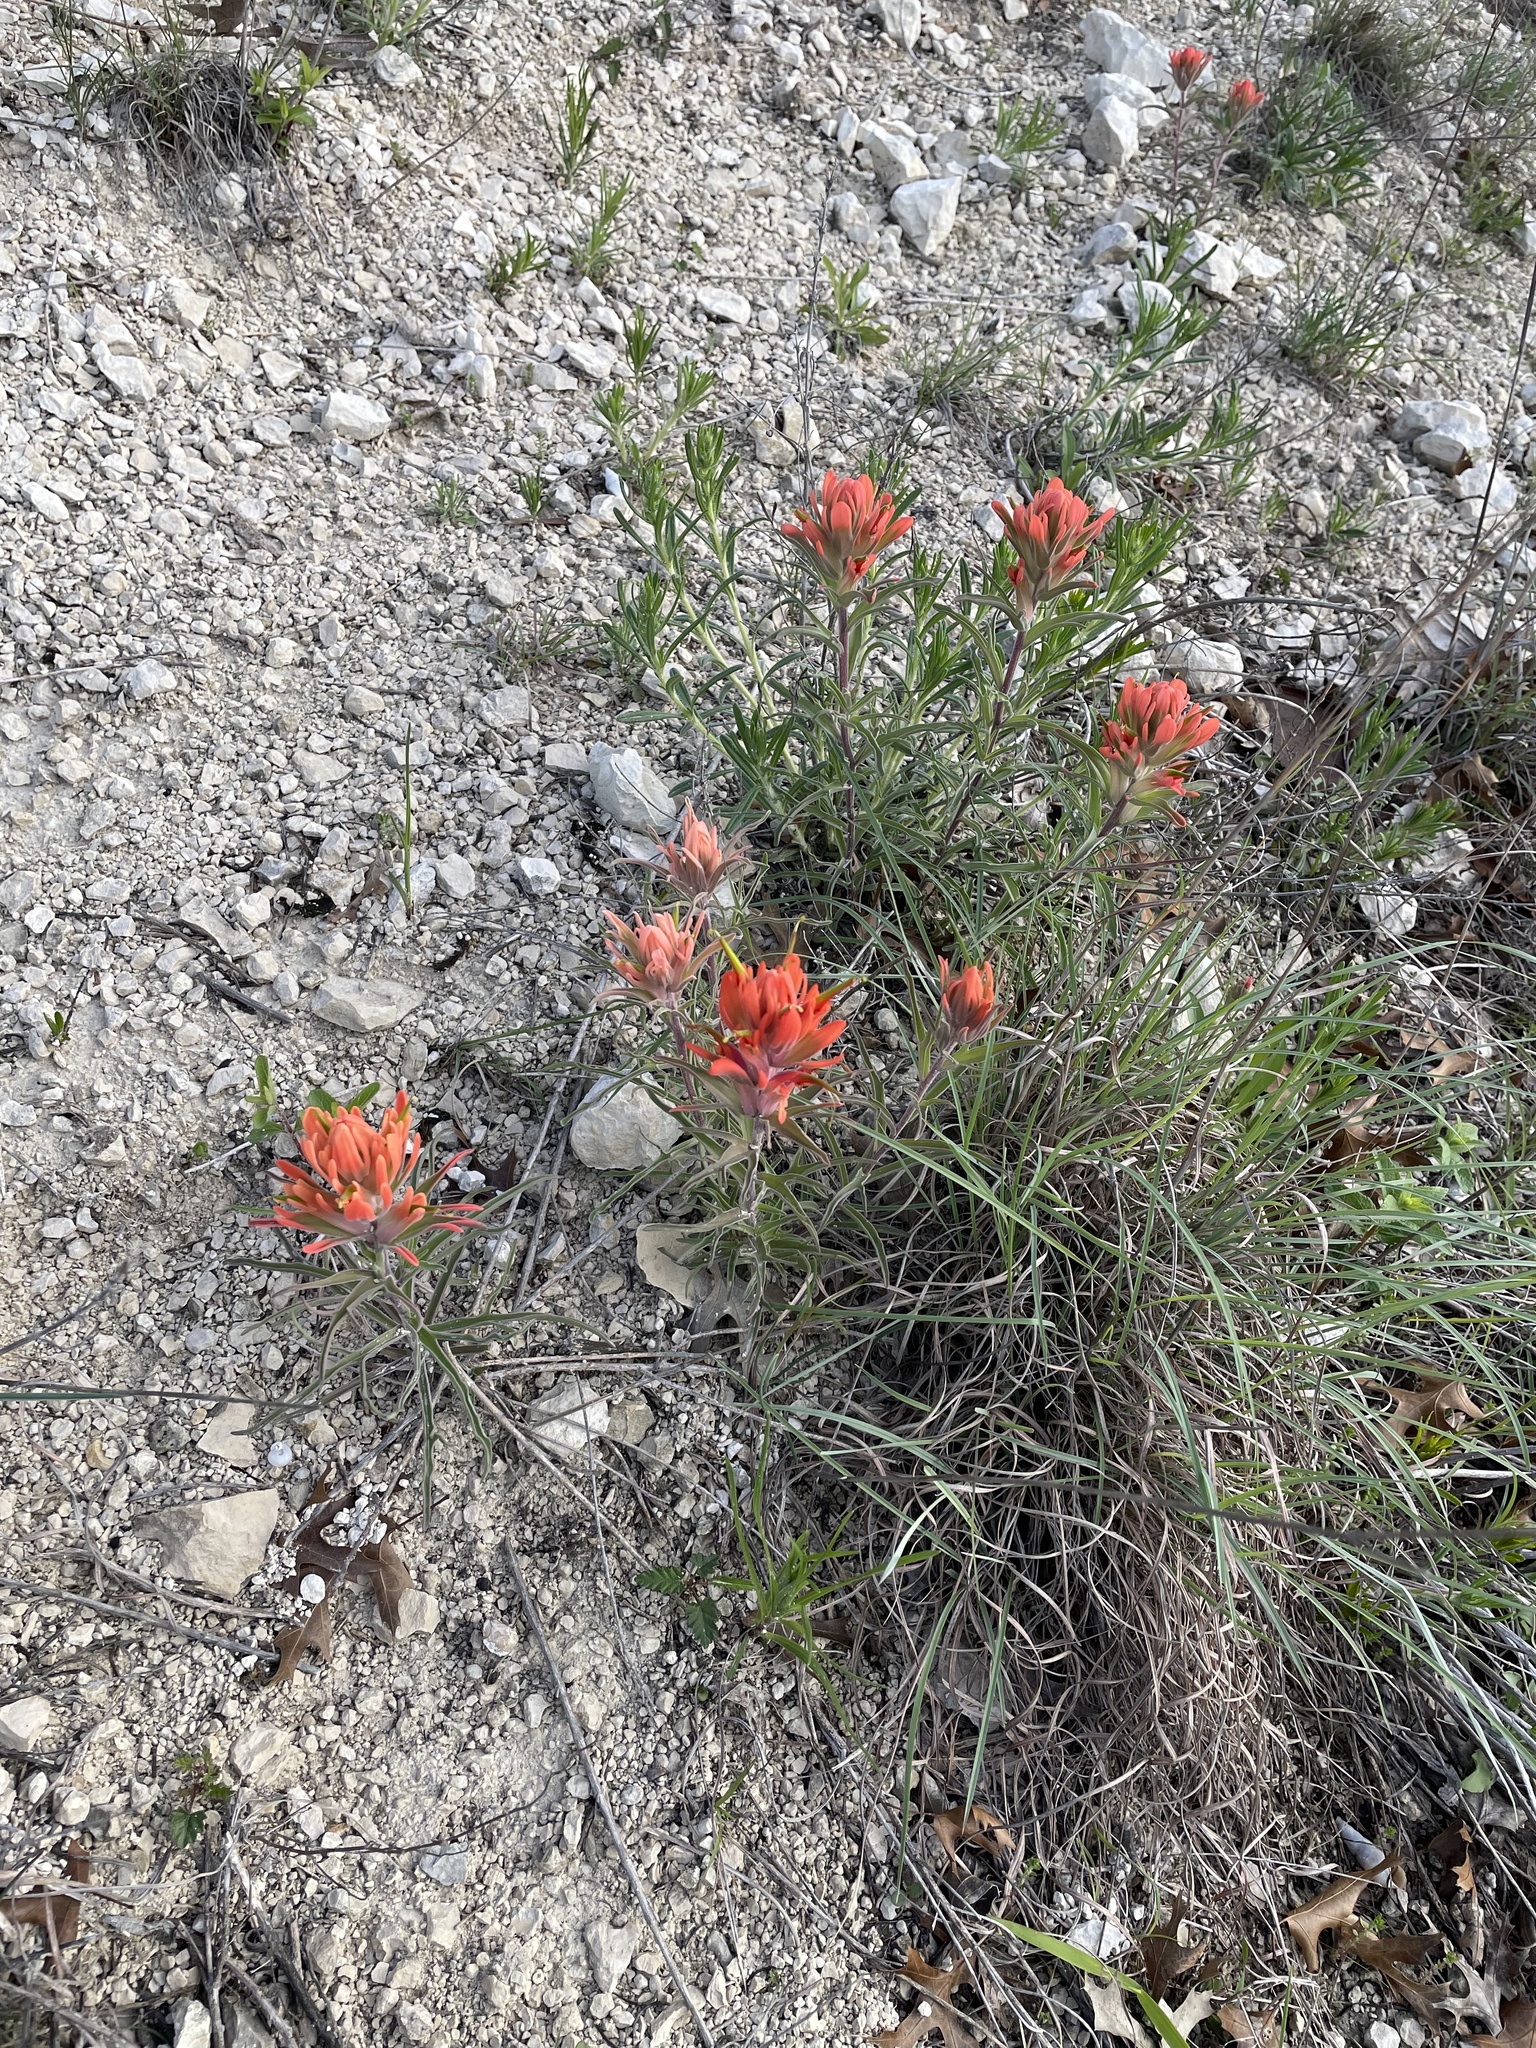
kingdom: Plantae
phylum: Tracheophyta
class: Magnoliopsida
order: Lamiales
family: Orobanchaceae
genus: Castilleja
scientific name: Castilleja lindheimeri
